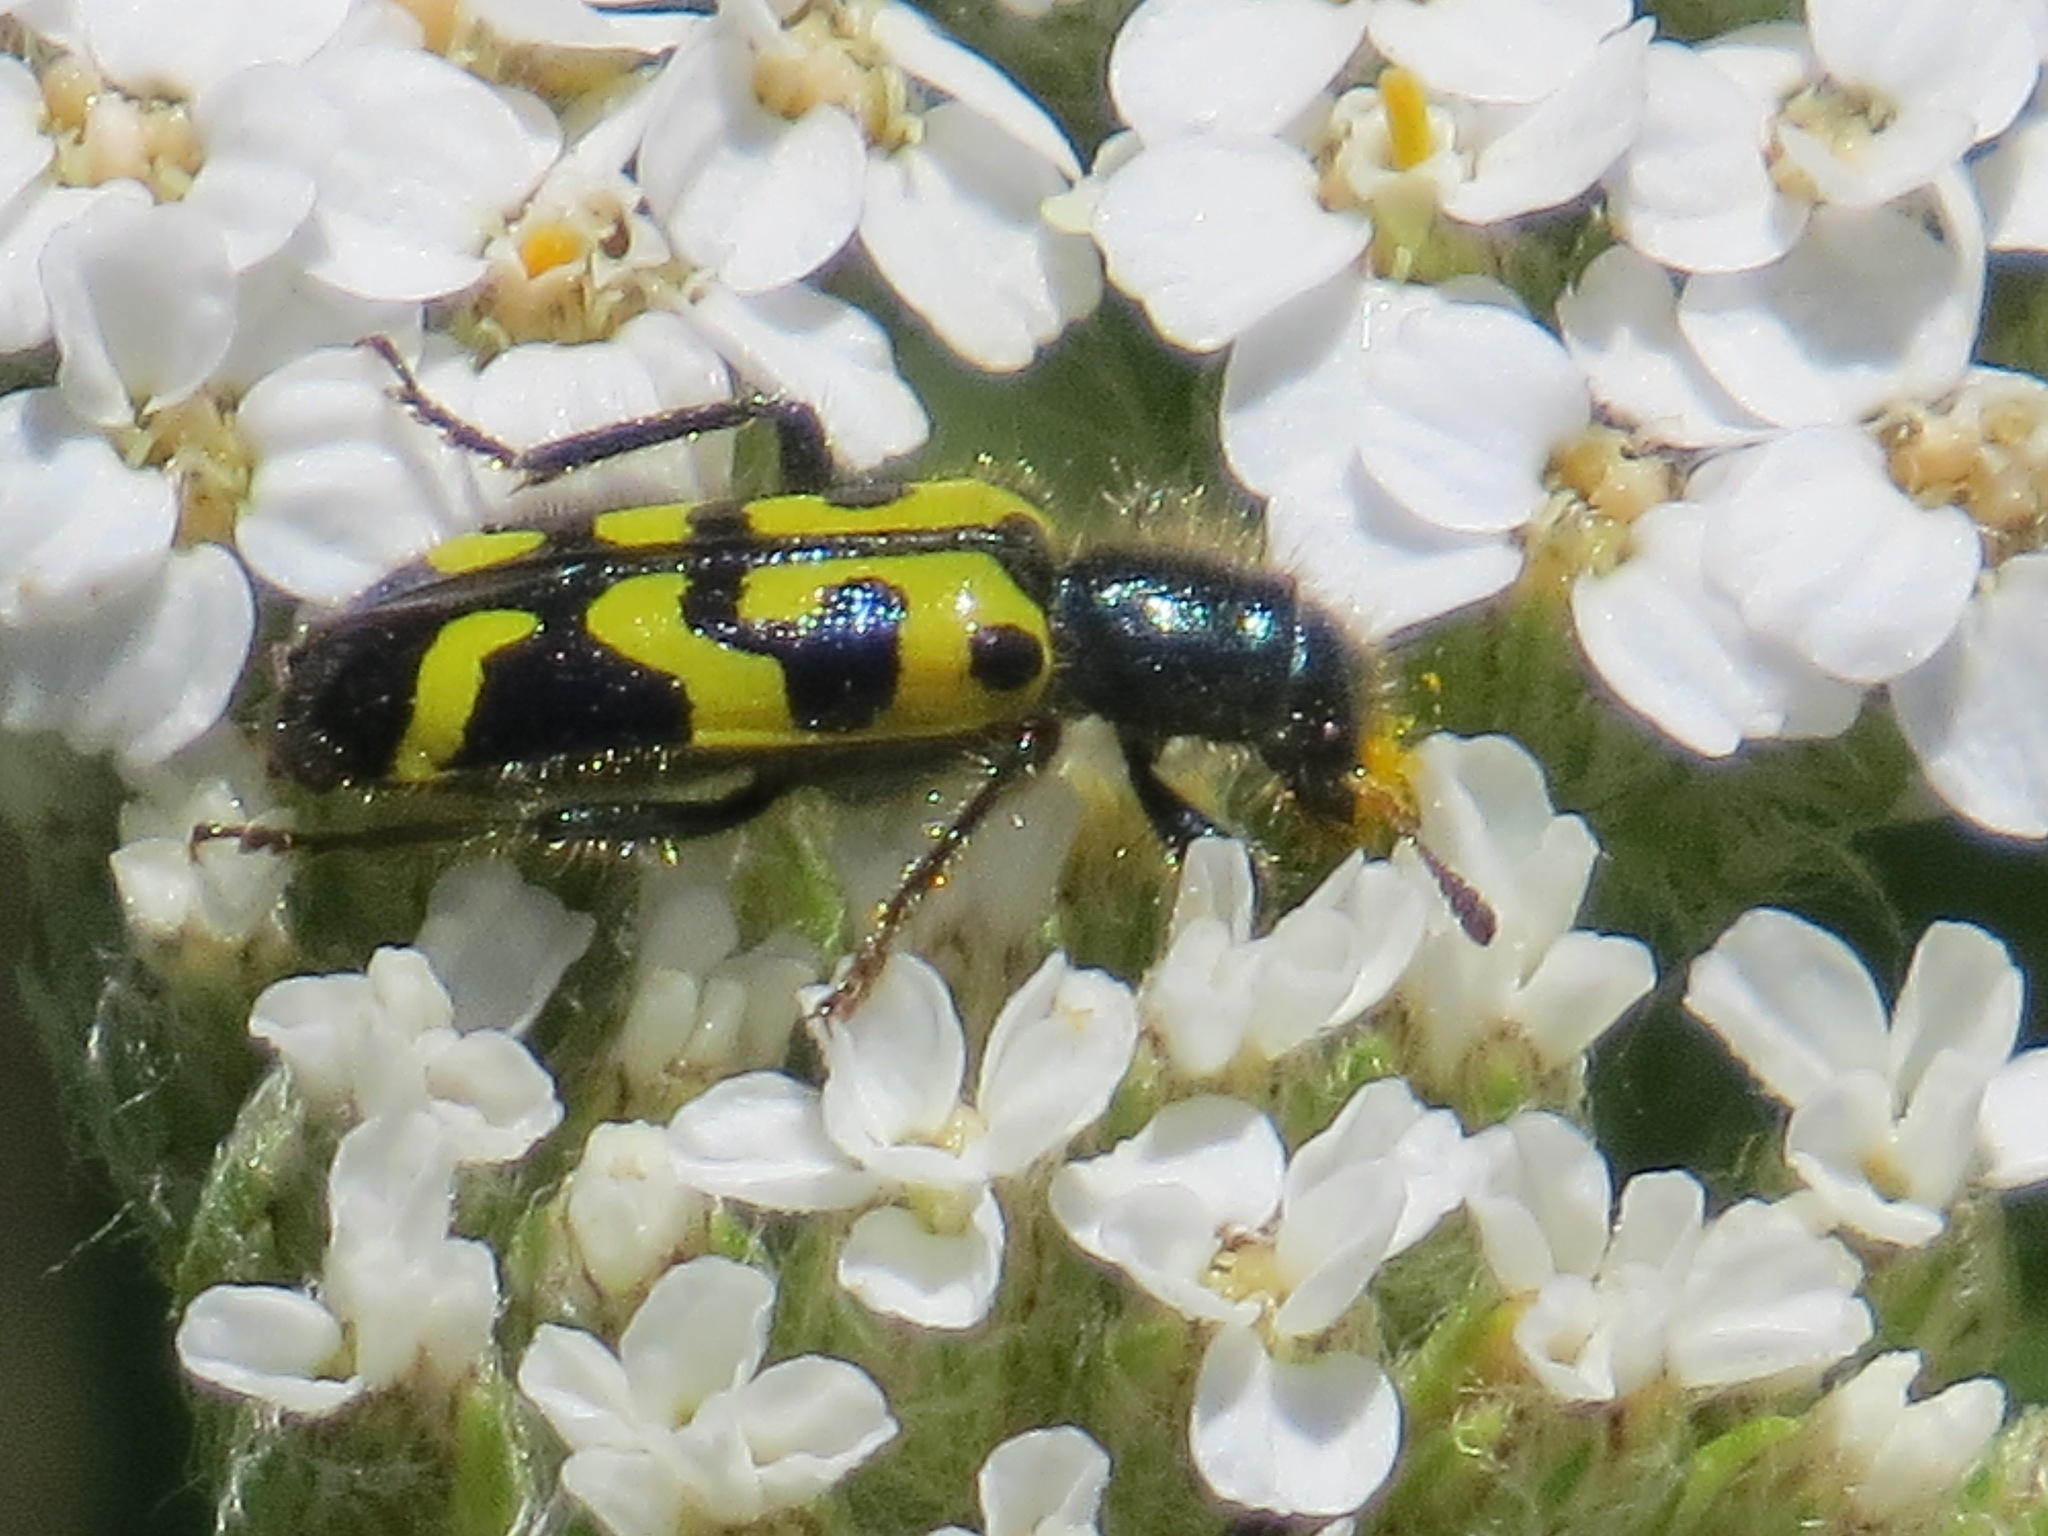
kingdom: Animalia
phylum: Arthropoda
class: Insecta
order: Coleoptera
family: Cleridae
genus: Trichodes
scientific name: Trichodes ornatus
